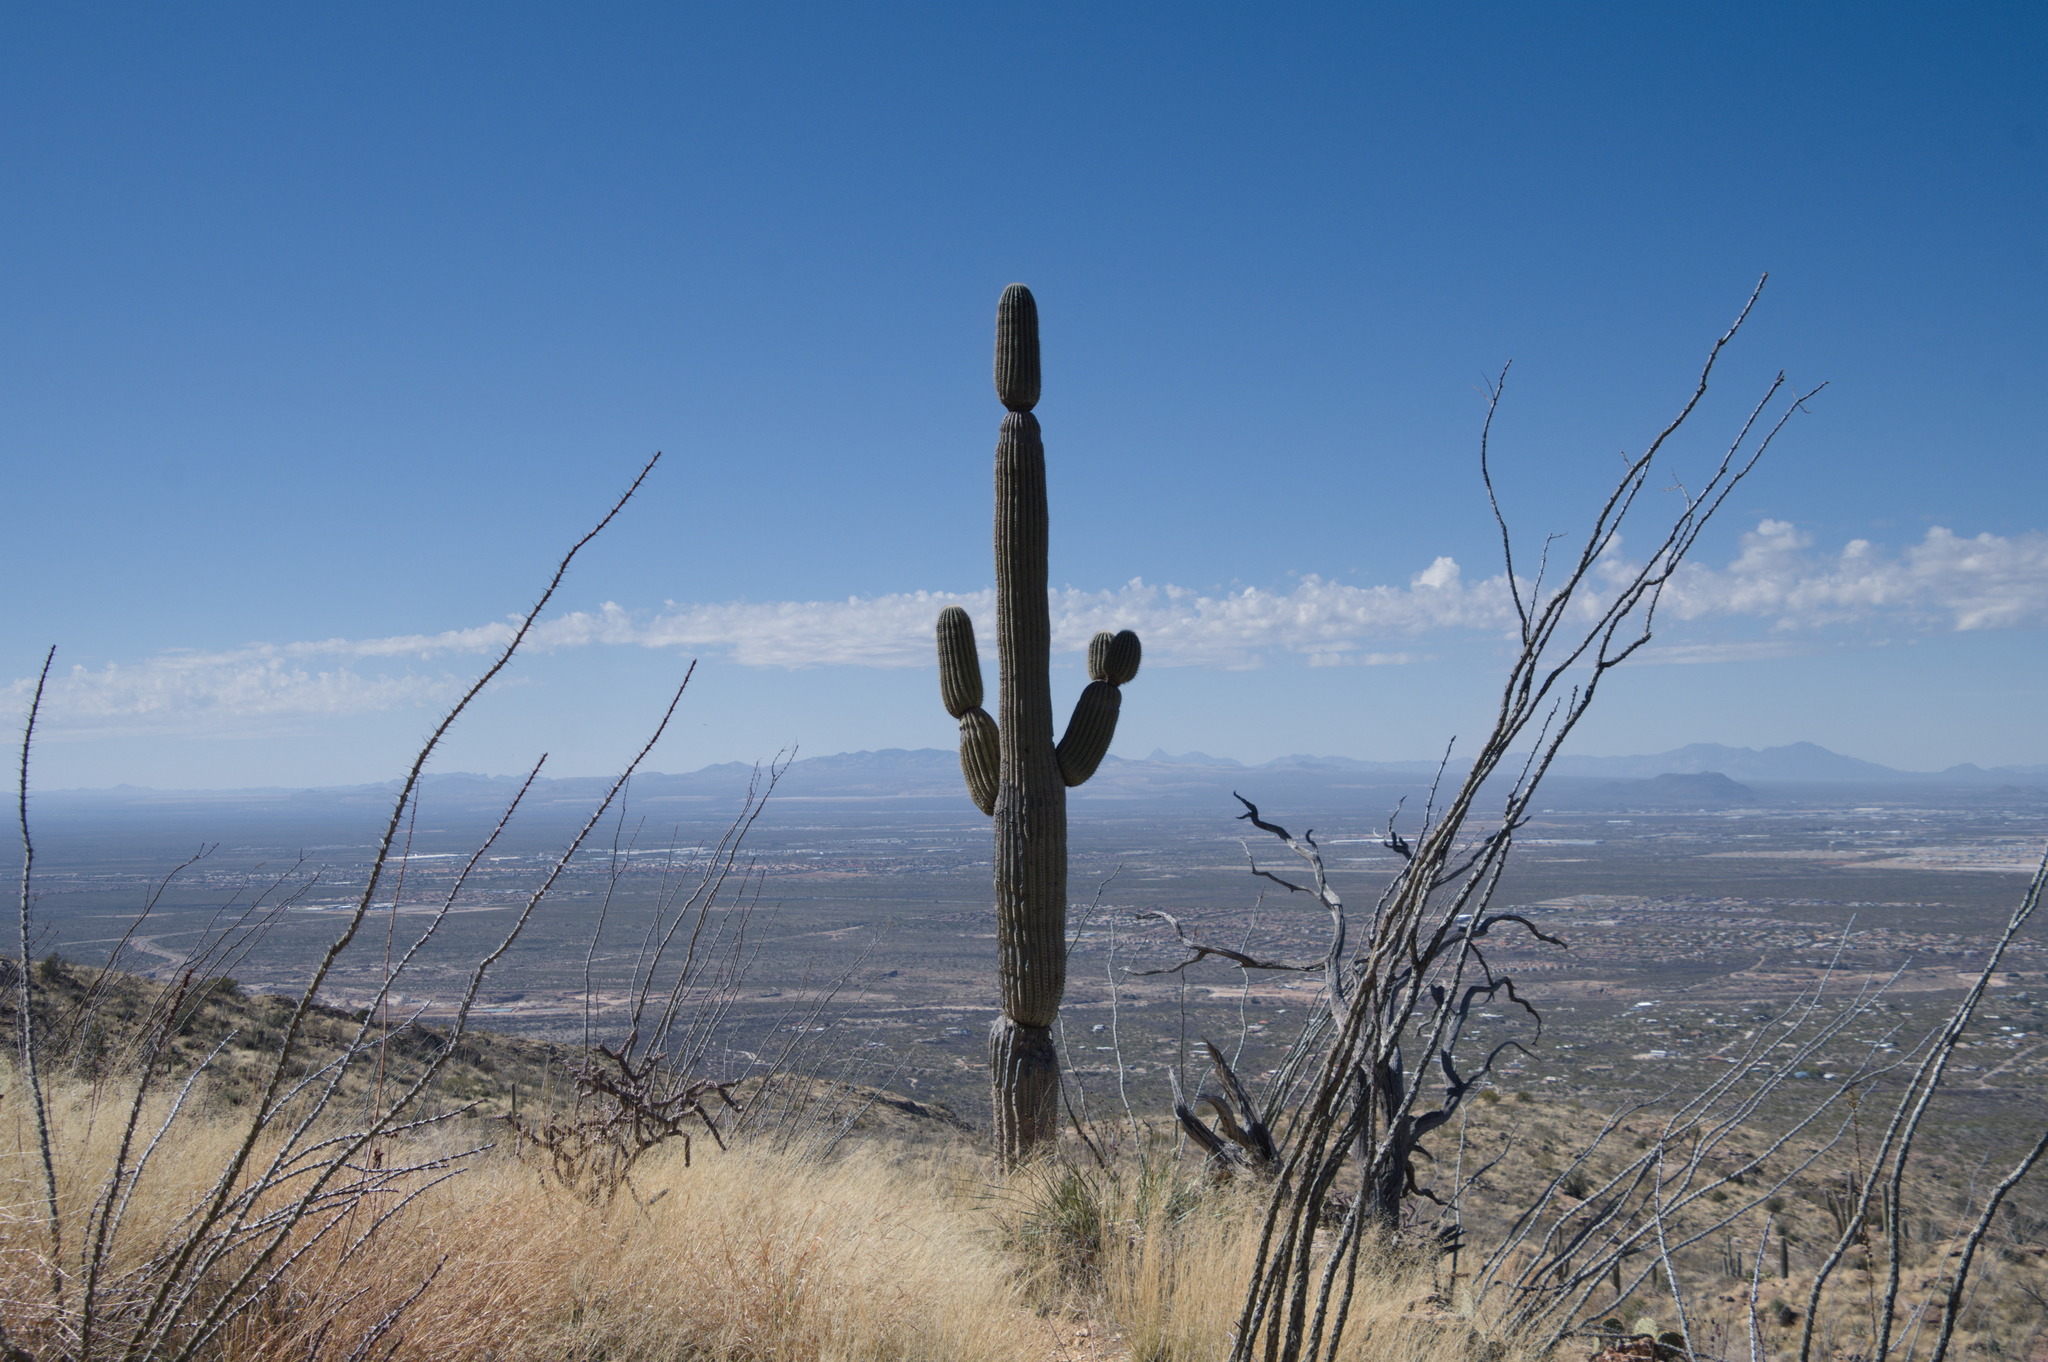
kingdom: Plantae
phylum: Tracheophyta
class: Magnoliopsida
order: Caryophyllales
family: Cactaceae
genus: Carnegiea
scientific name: Carnegiea gigantea
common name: Saguaro
